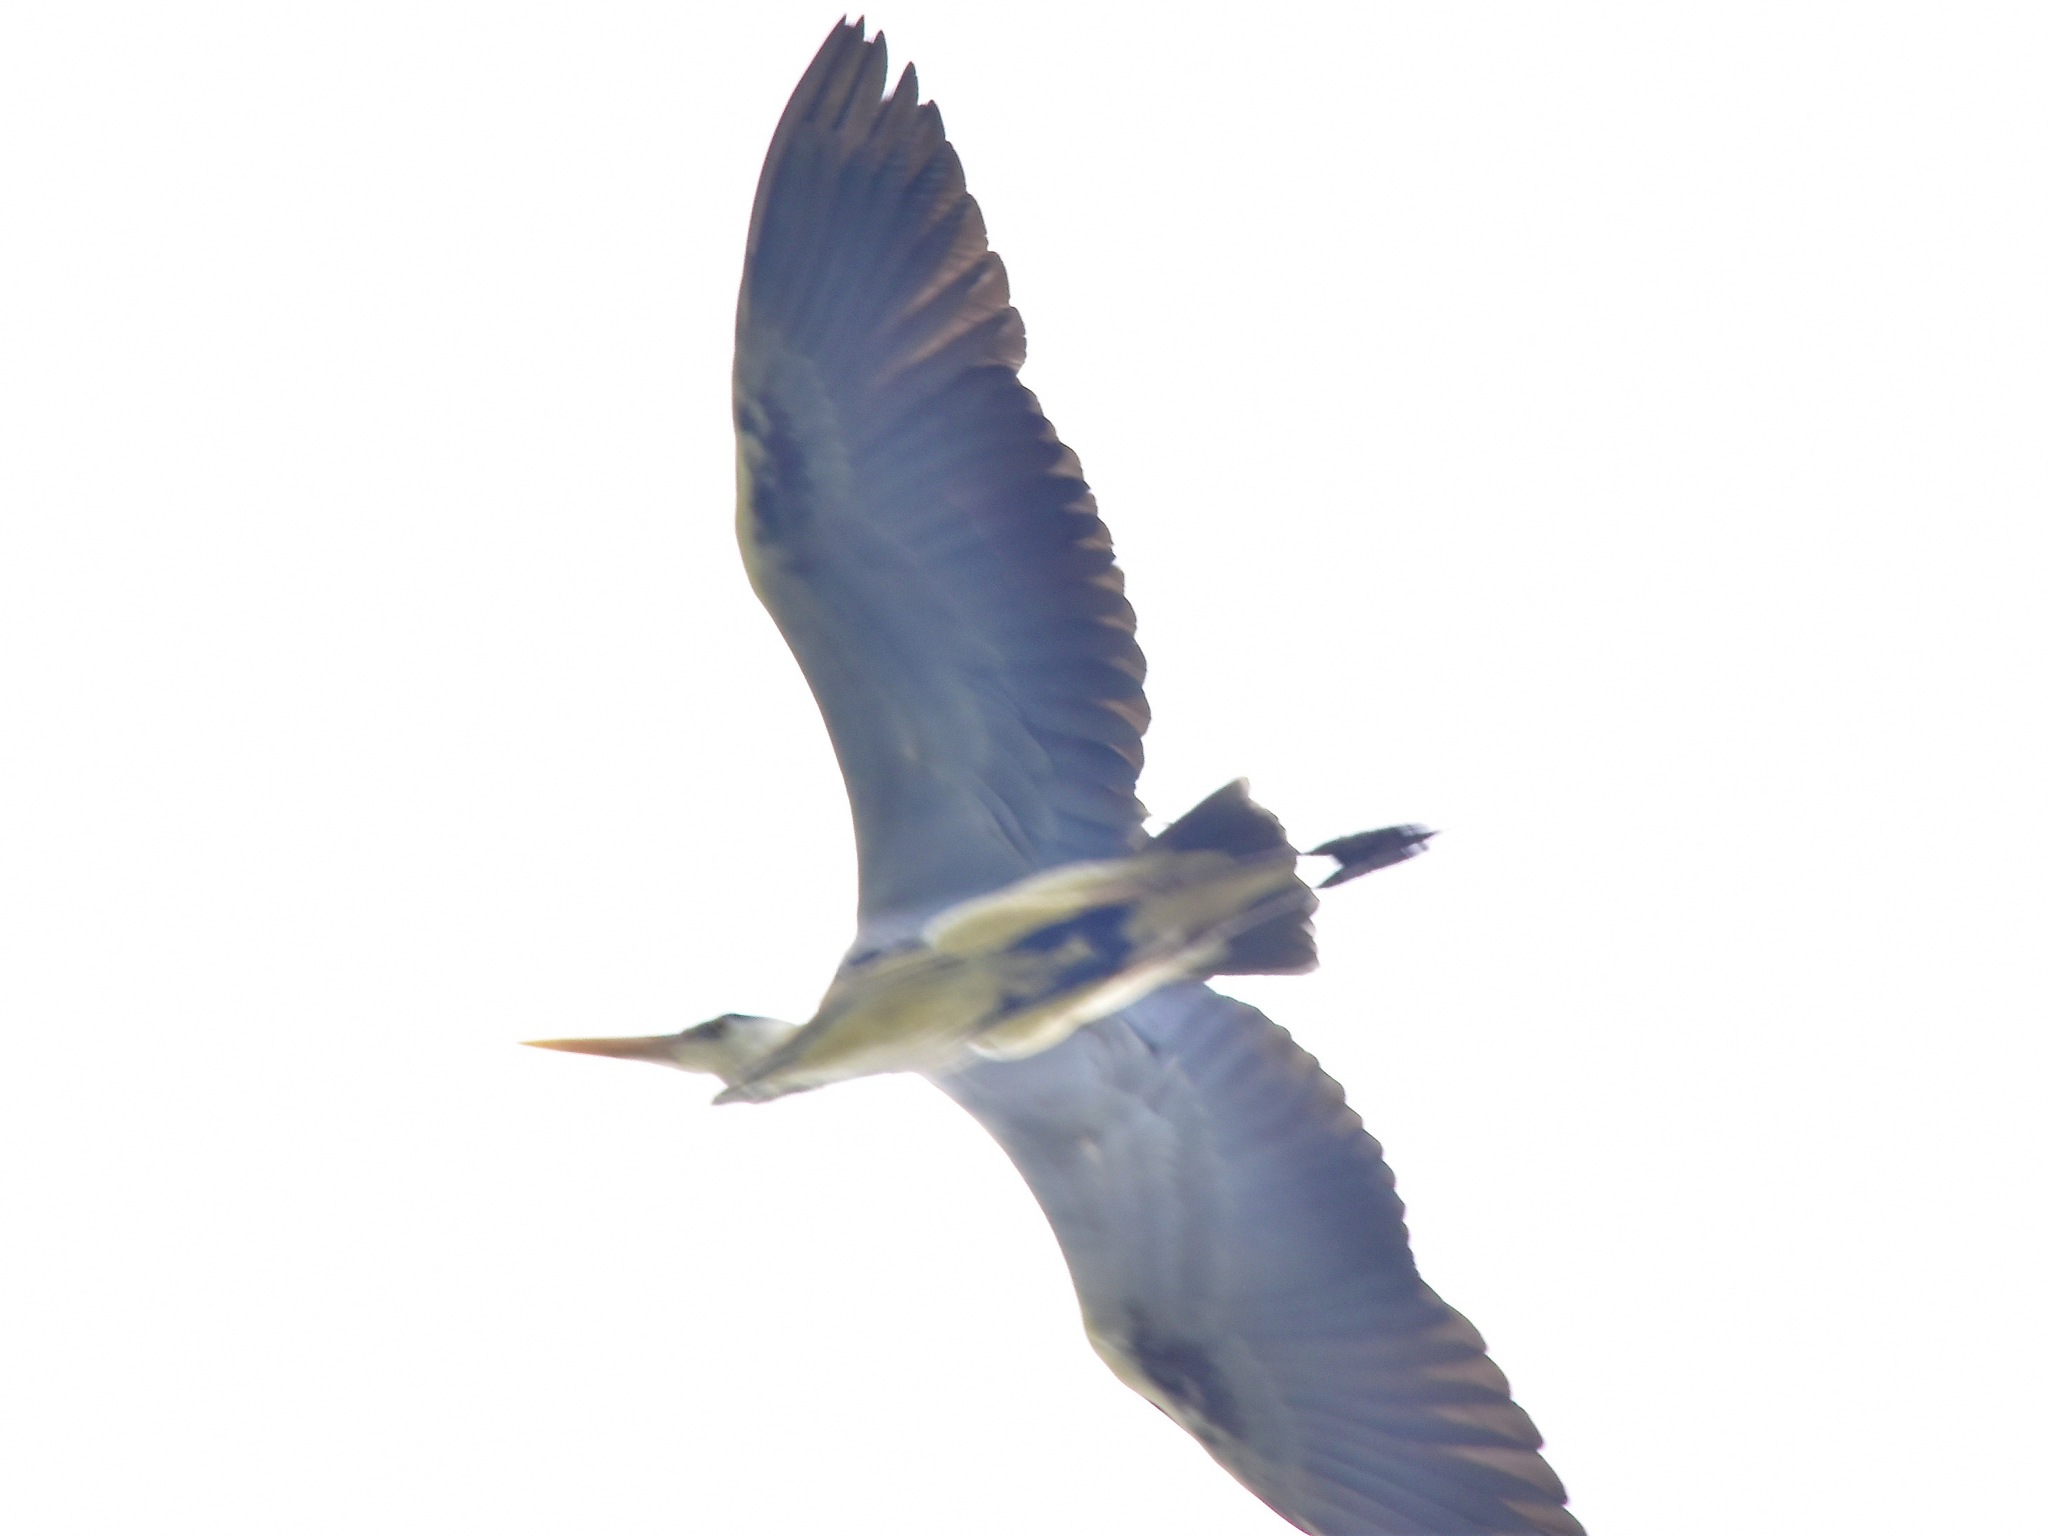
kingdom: Animalia
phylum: Chordata
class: Aves
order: Pelecaniformes
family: Ardeidae
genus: Ardea
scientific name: Ardea cinerea
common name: Grey heron
